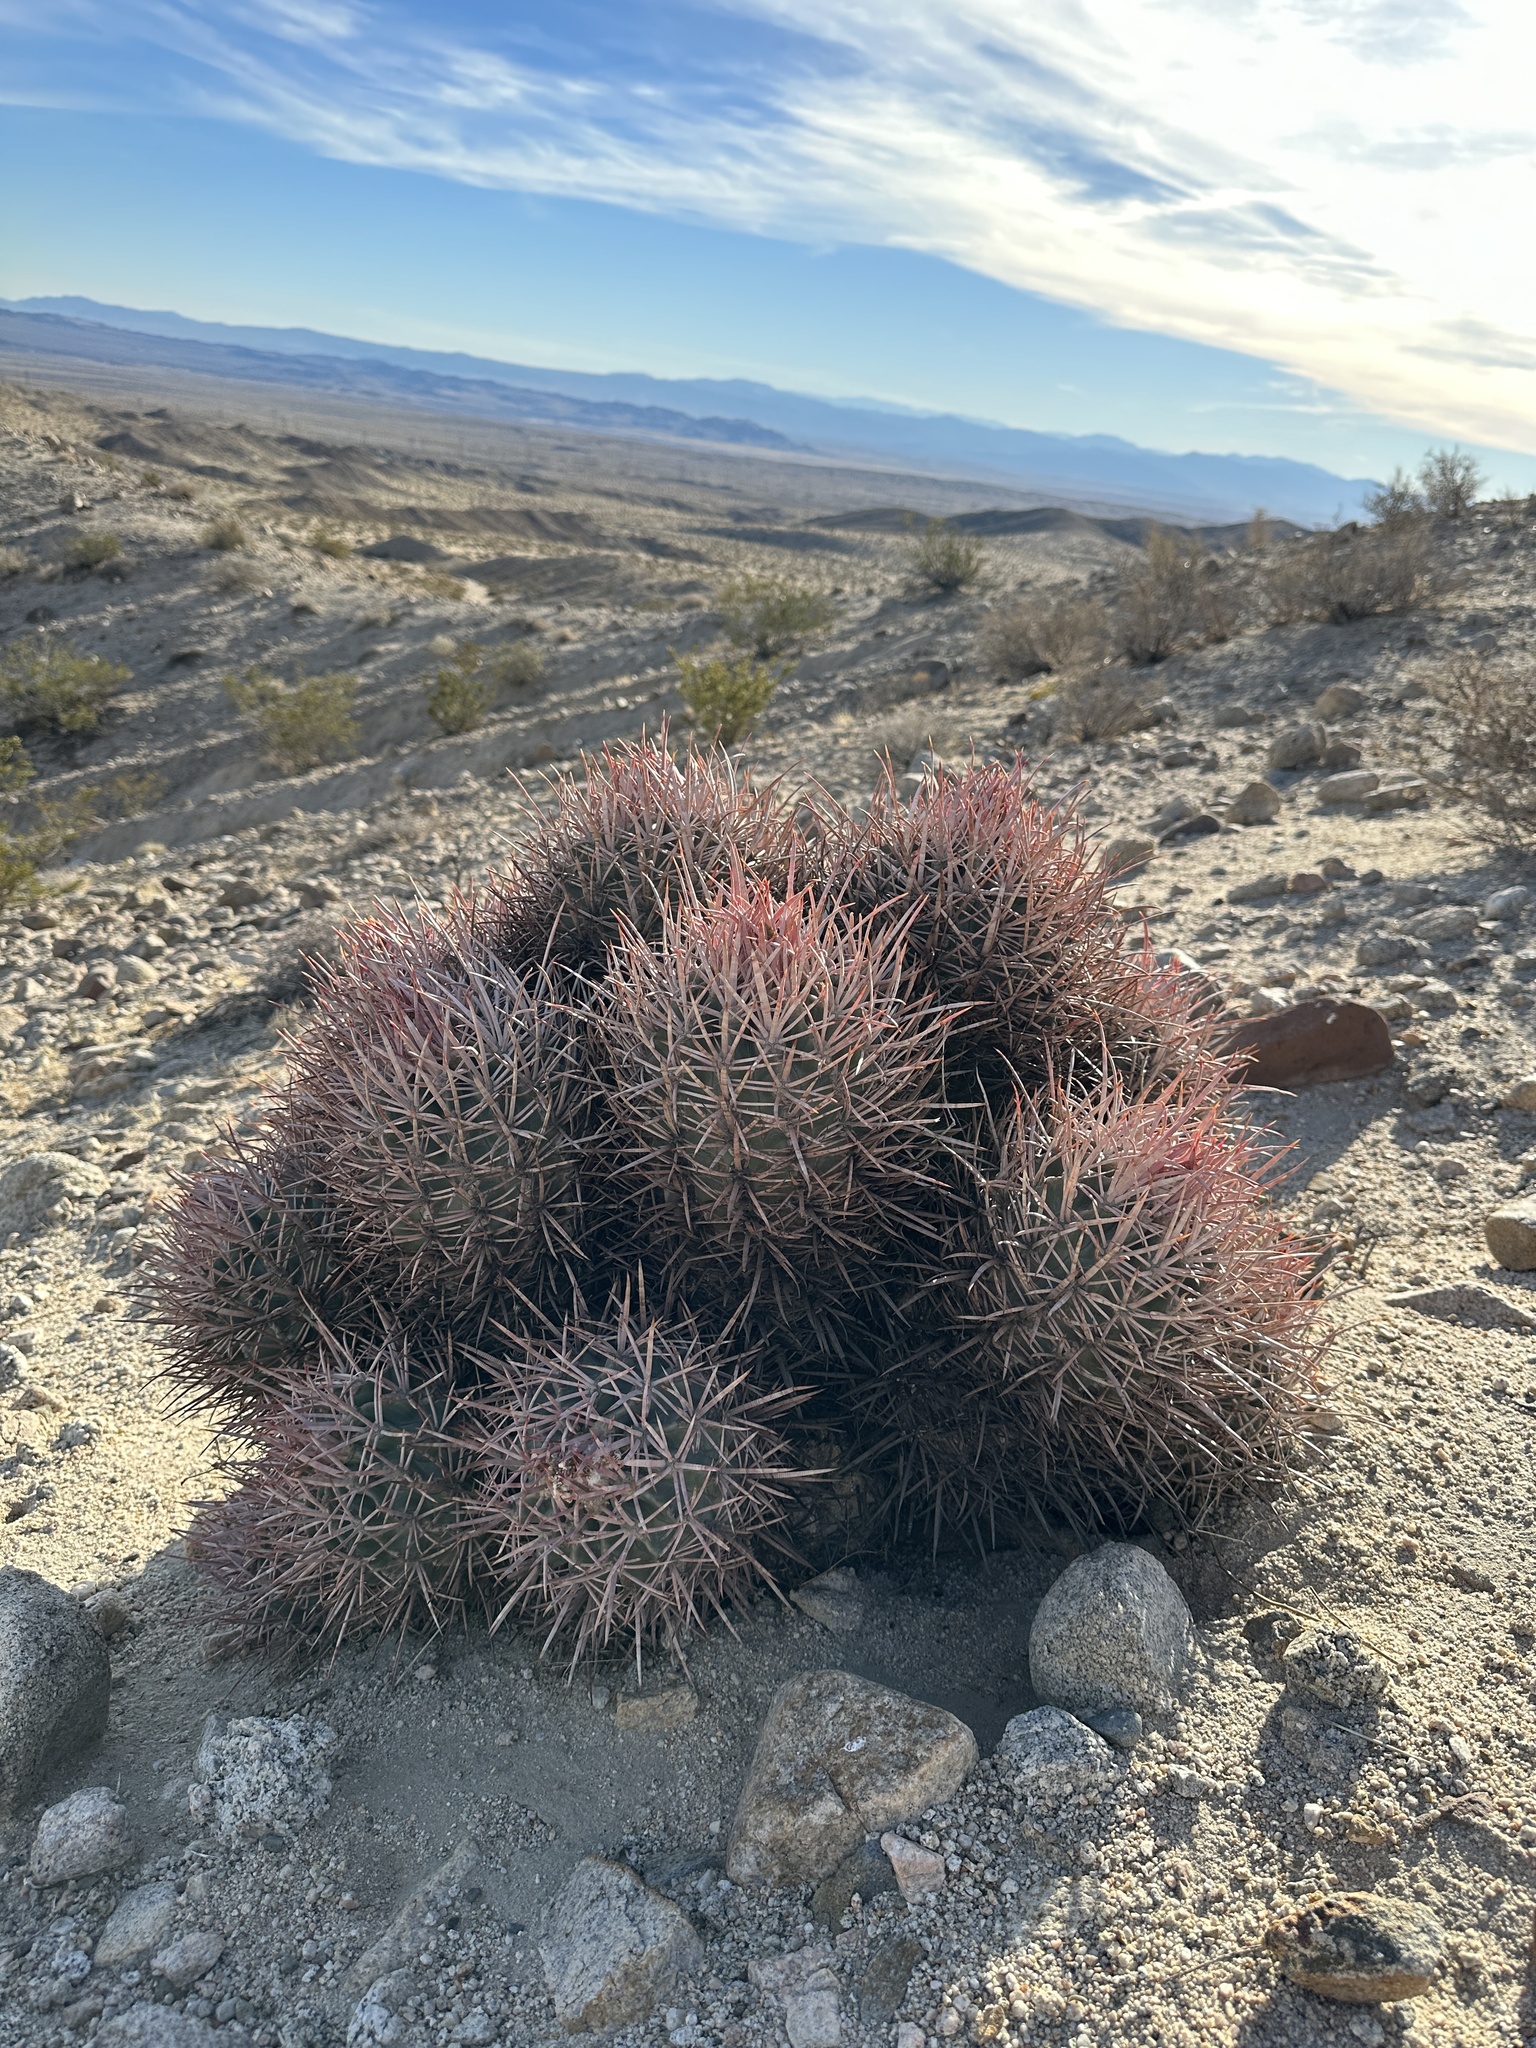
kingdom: Plantae
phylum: Tracheophyta
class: Magnoliopsida
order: Caryophyllales
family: Cactaceae
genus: Echinocactus
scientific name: Echinocactus polycephalus
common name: Cottontop cactus
